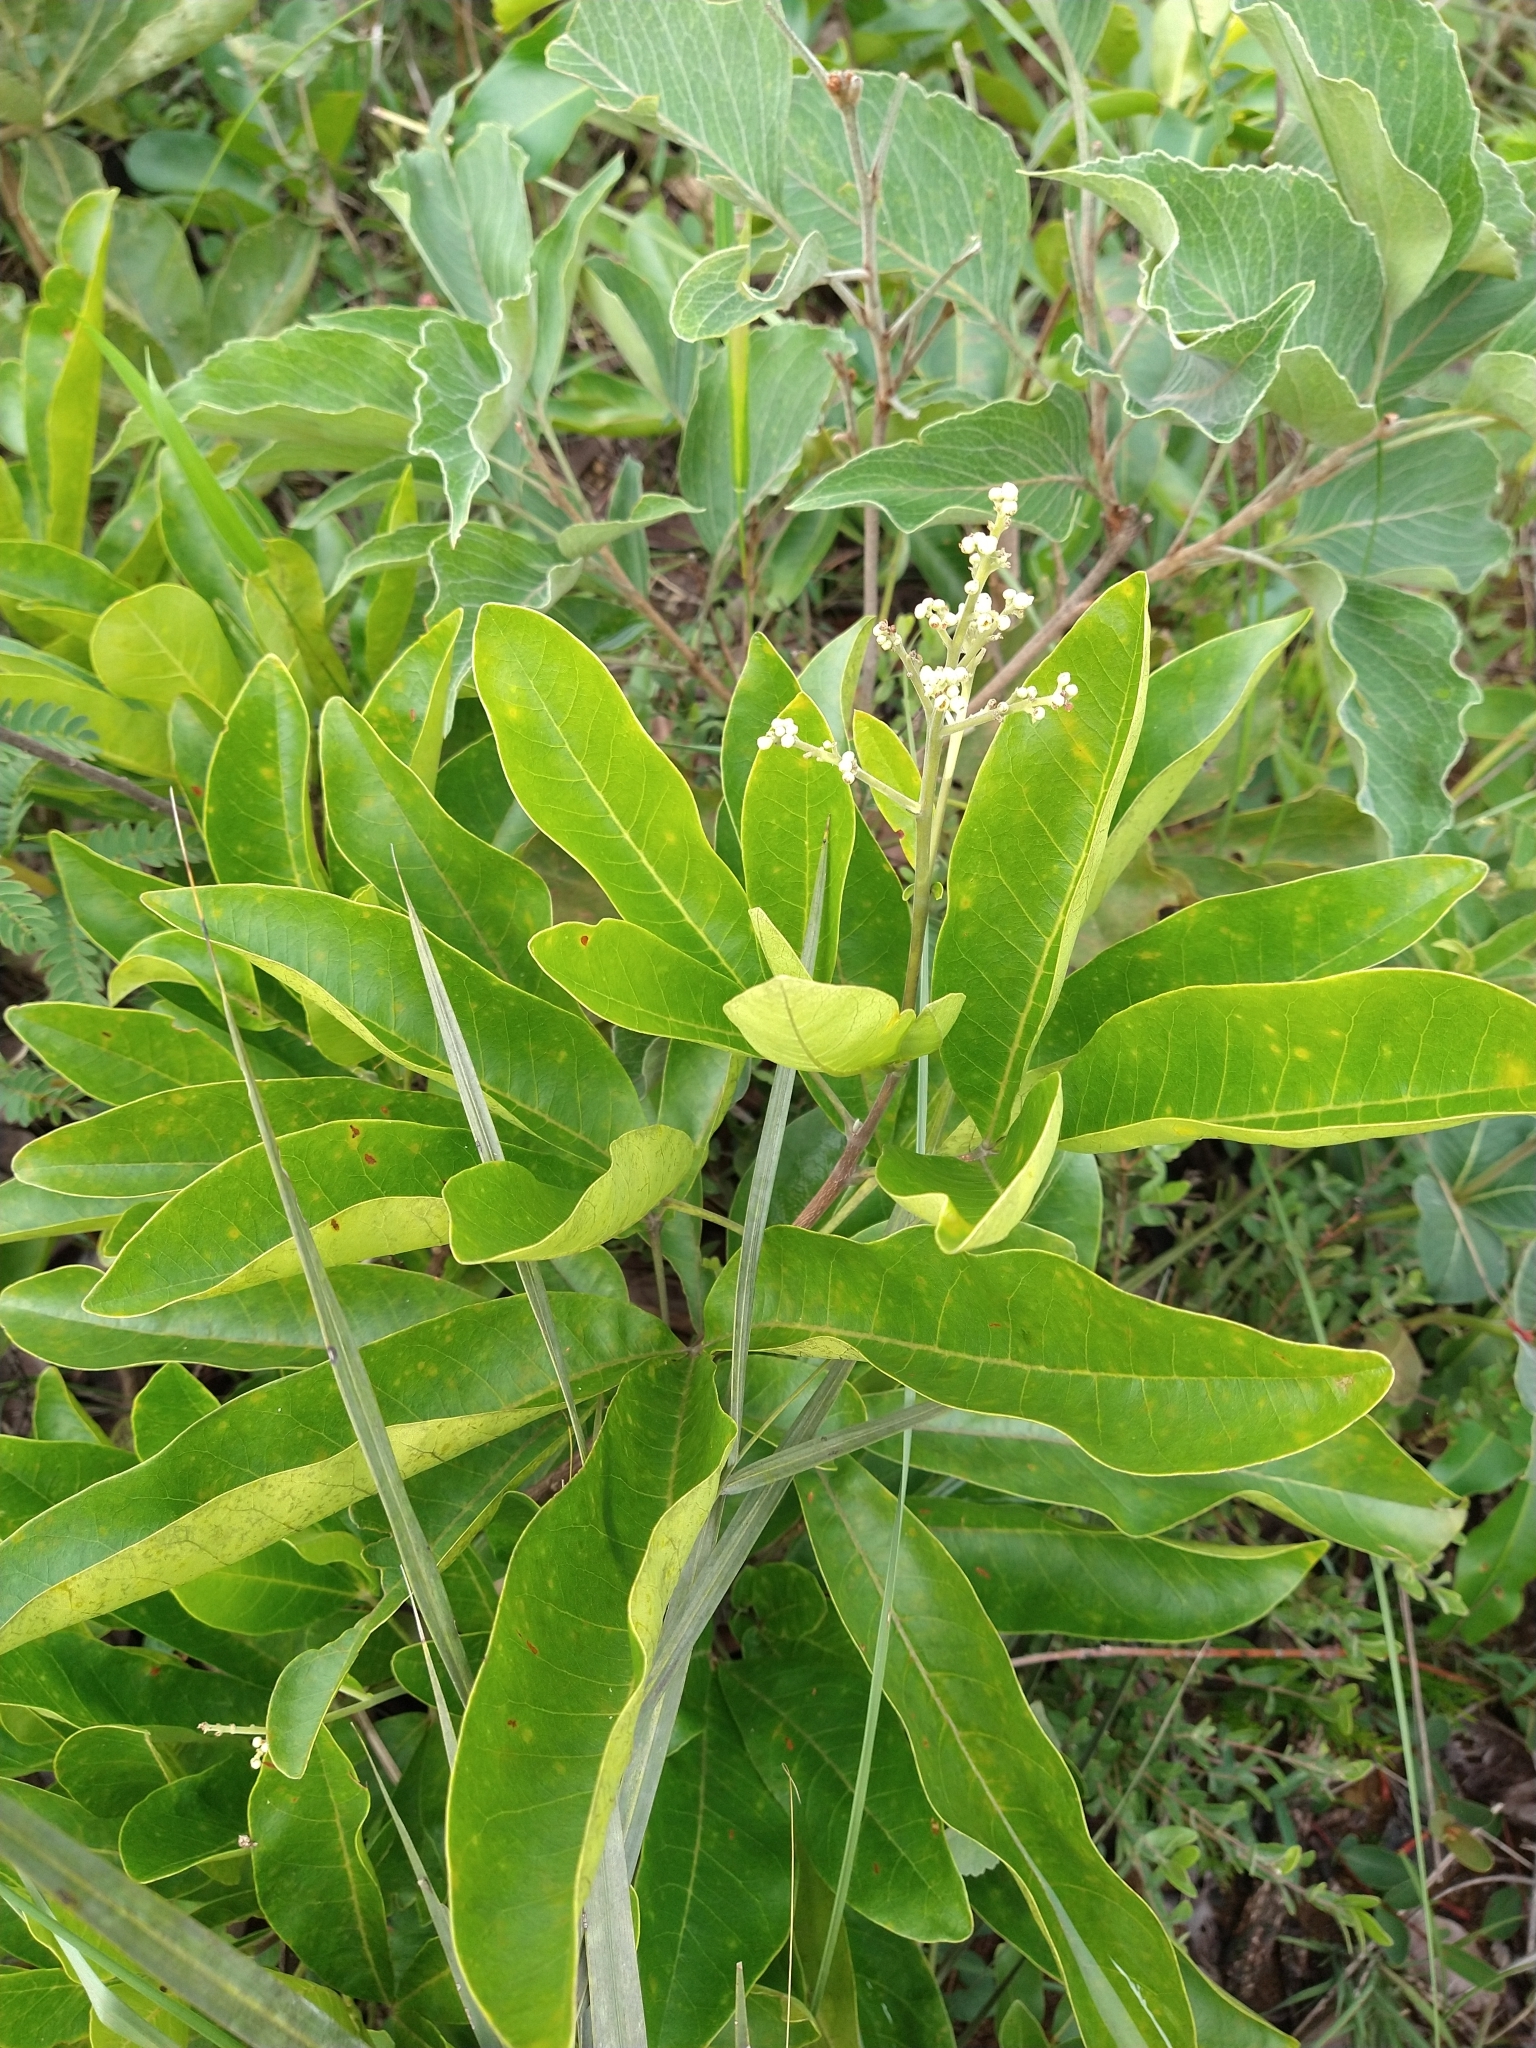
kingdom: Plantae
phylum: Tracheophyta
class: Magnoliopsida
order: Sapindales
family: Rutaceae
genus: Esenbeckia
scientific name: Esenbeckia pumila
